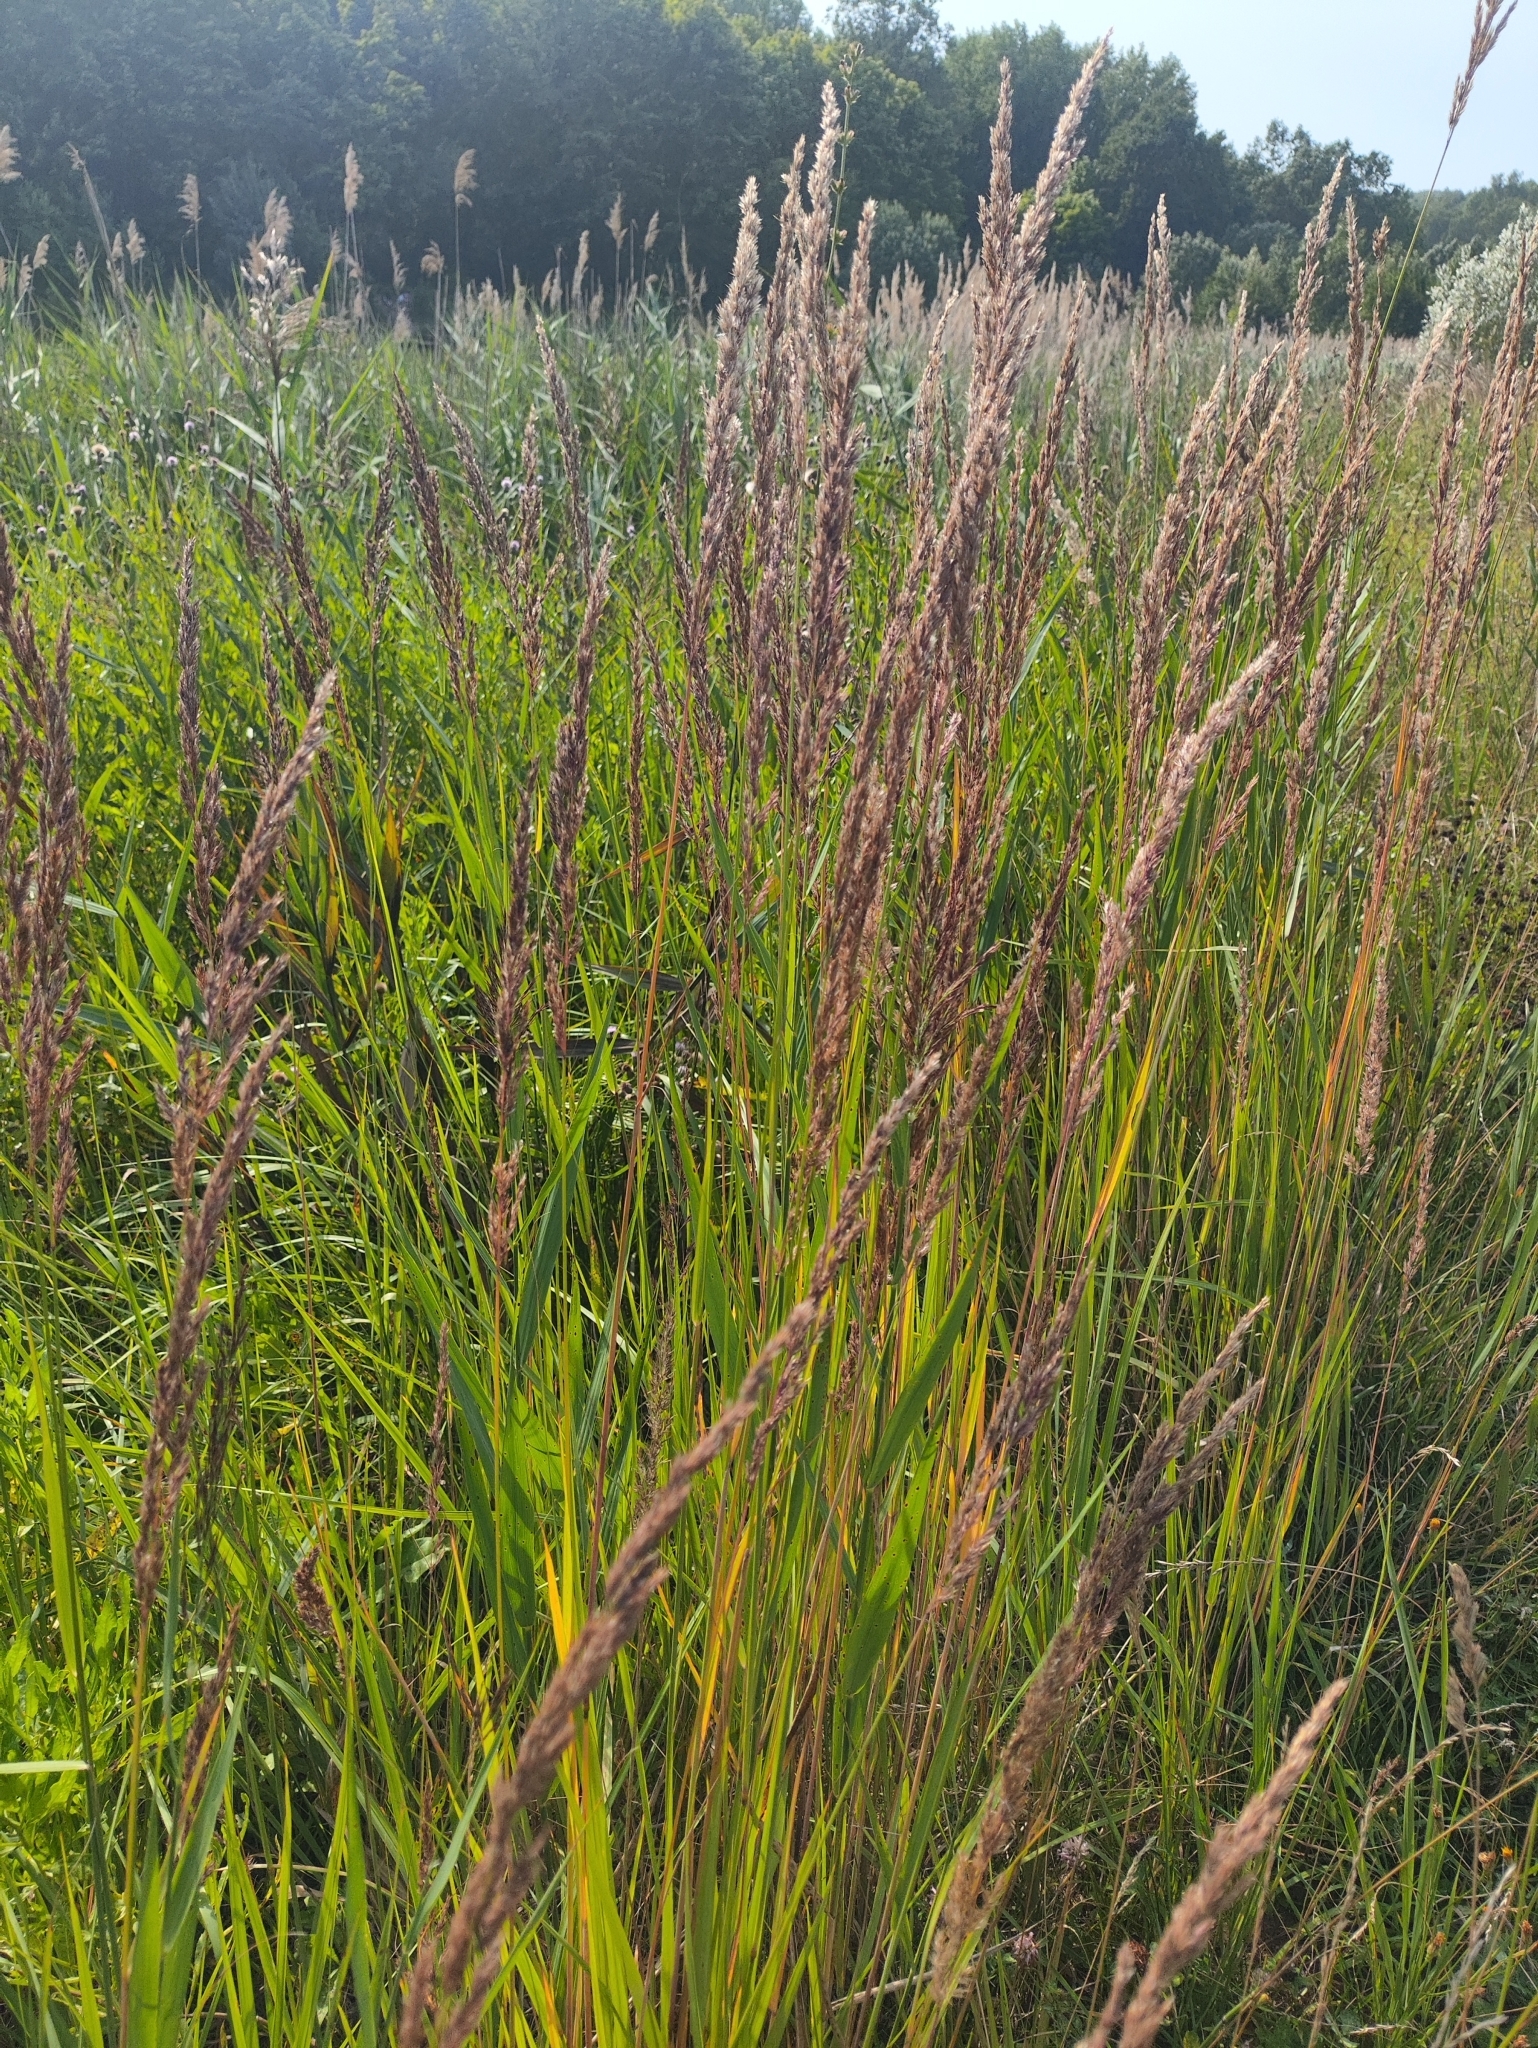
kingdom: Plantae
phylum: Tracheophyta
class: Liliopsida
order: Poales
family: Poaceae
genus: Calamagrostis
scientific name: Calamagrostis epigejos
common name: Wood small-reed
